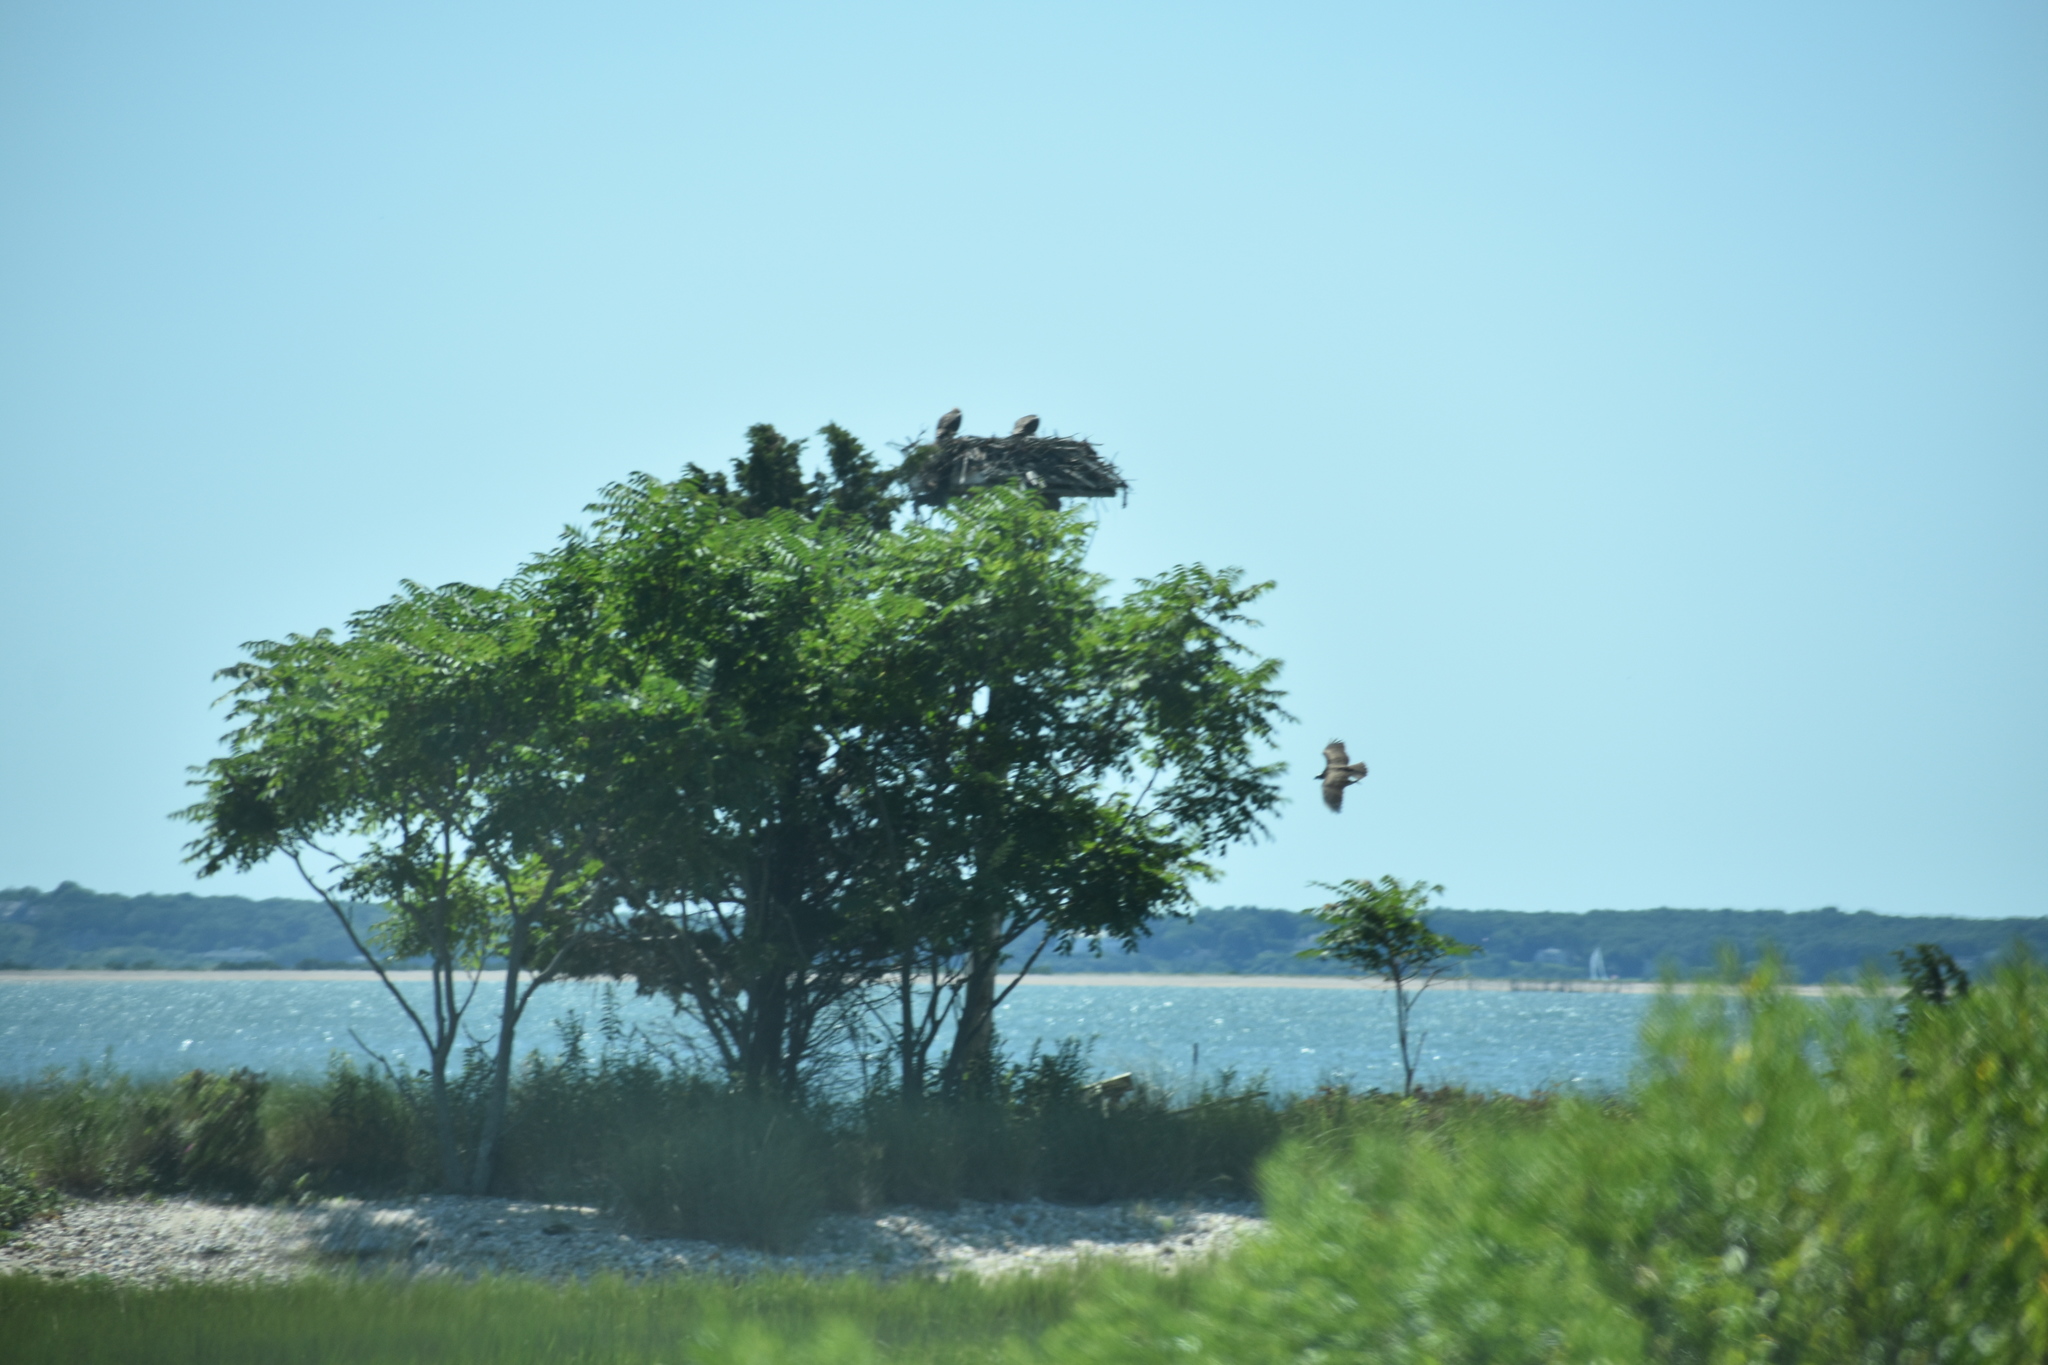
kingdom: Animalia
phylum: Chordata
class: Aves
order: Accipitriformes
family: Pandionidae
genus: Pandion
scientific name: Pandion haliaetus
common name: Osprey
